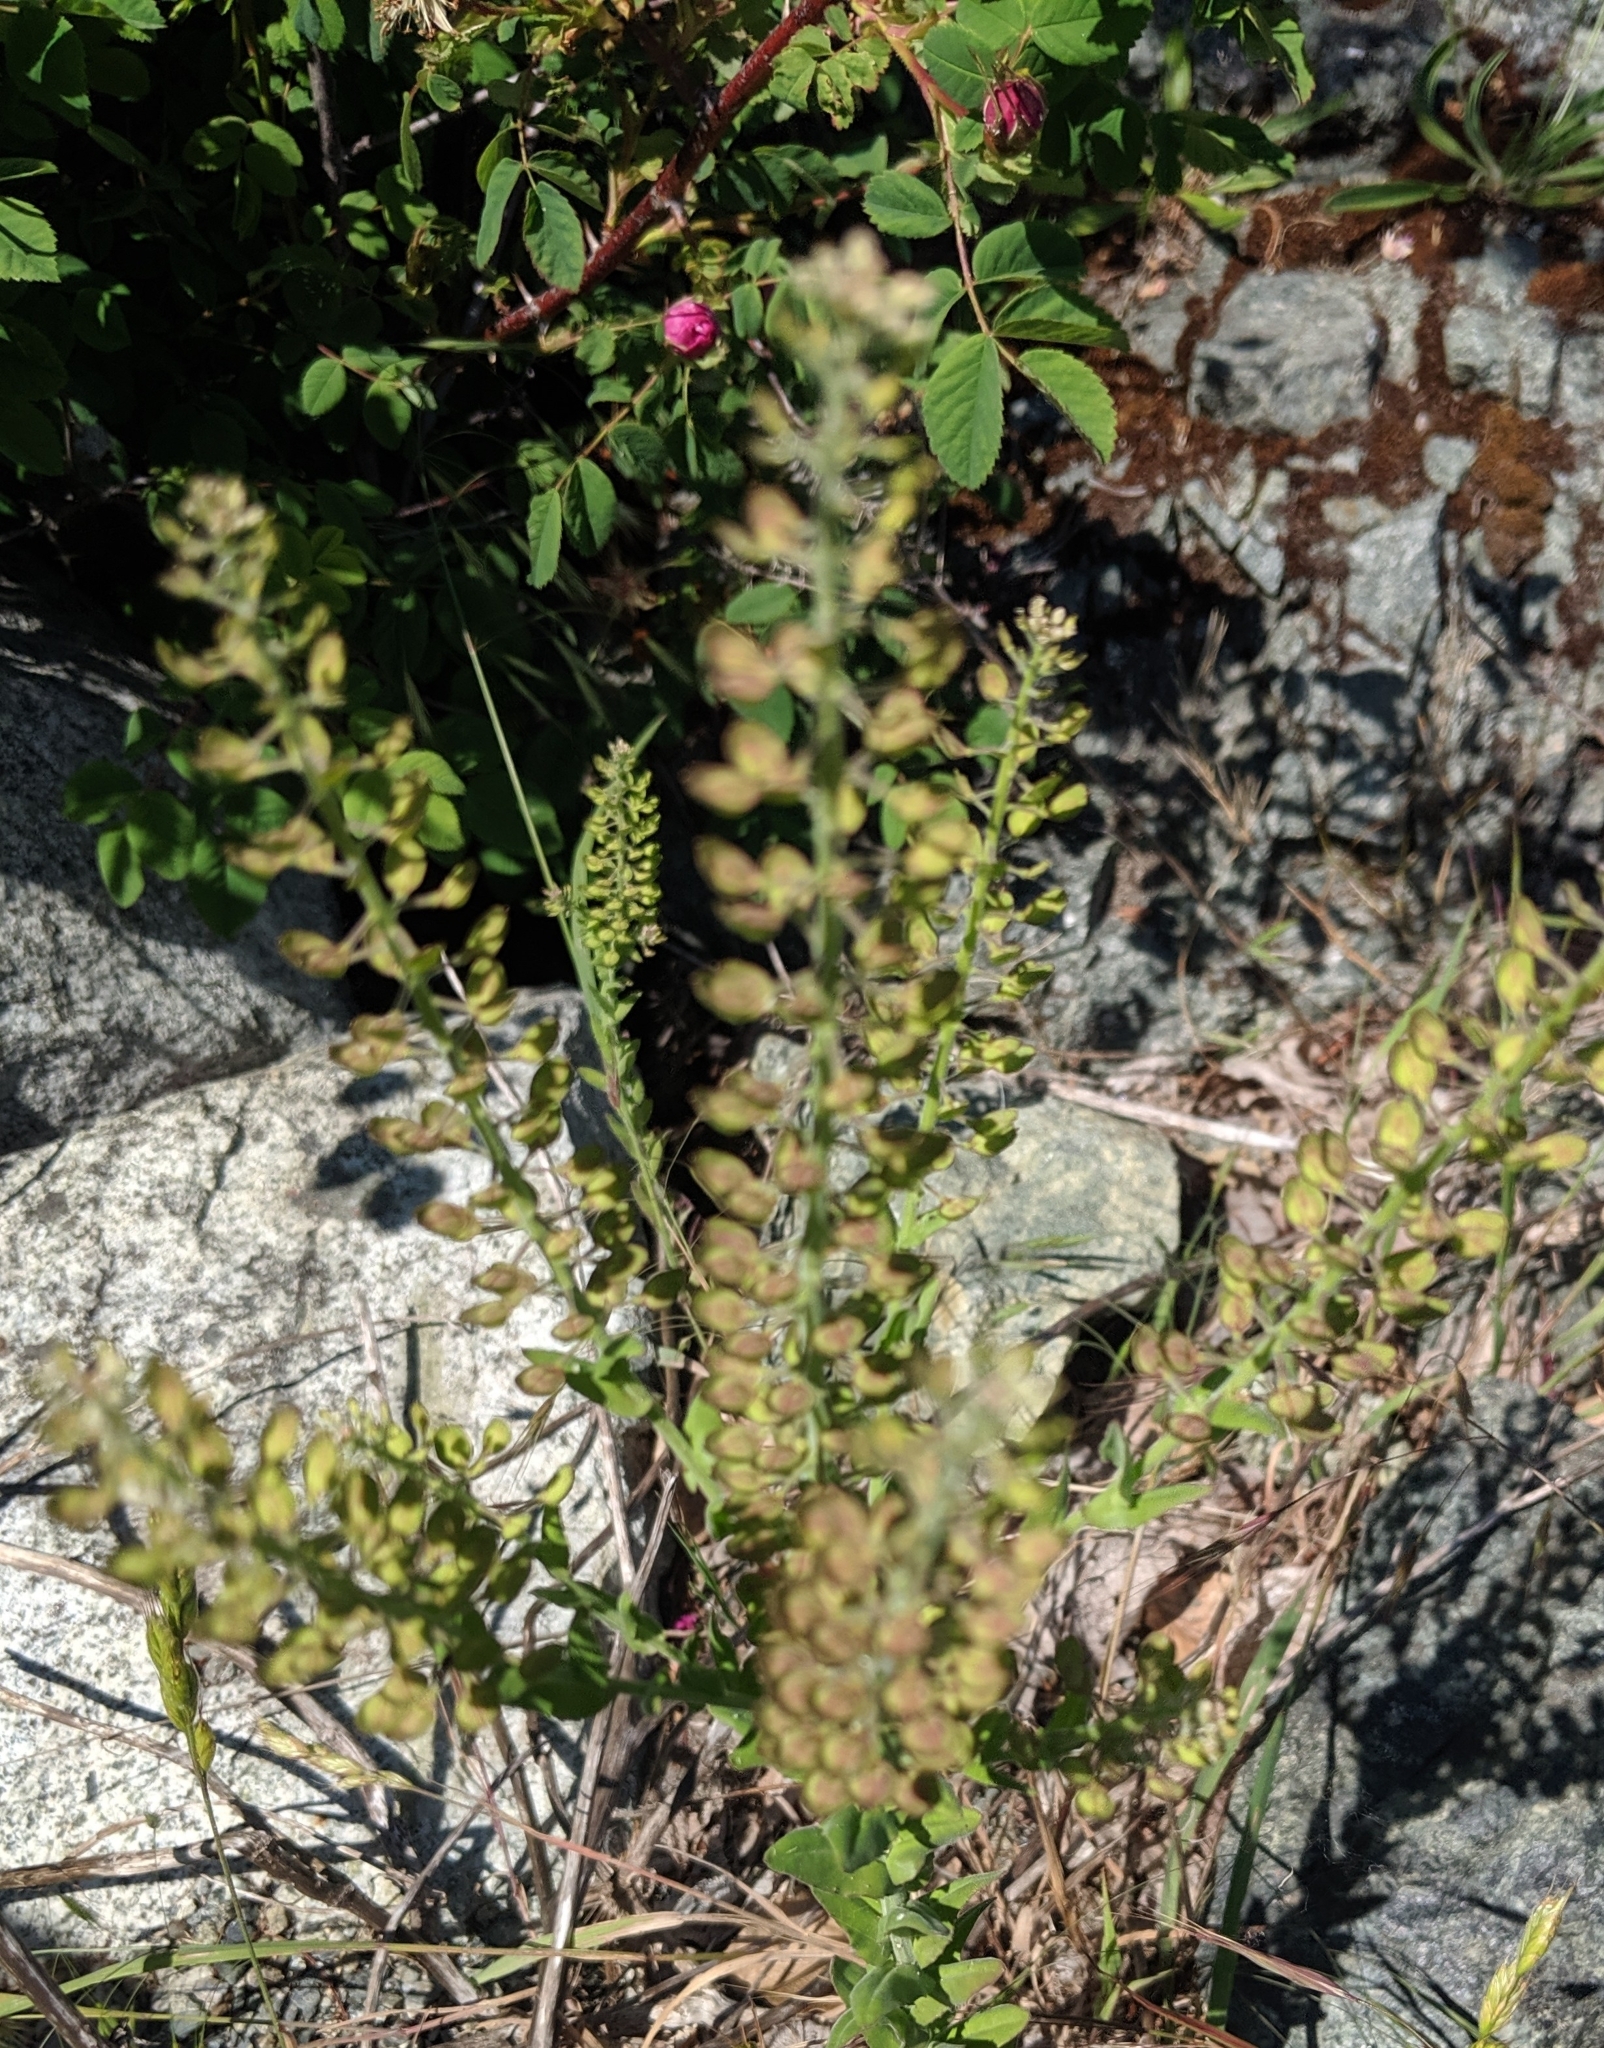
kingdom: Plantae
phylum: Tracheophyta
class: Magnoliopsida
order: Brassicales
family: Brassicaceae
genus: Lepidium
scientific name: Lepidium campestre
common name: Field pepperwort
